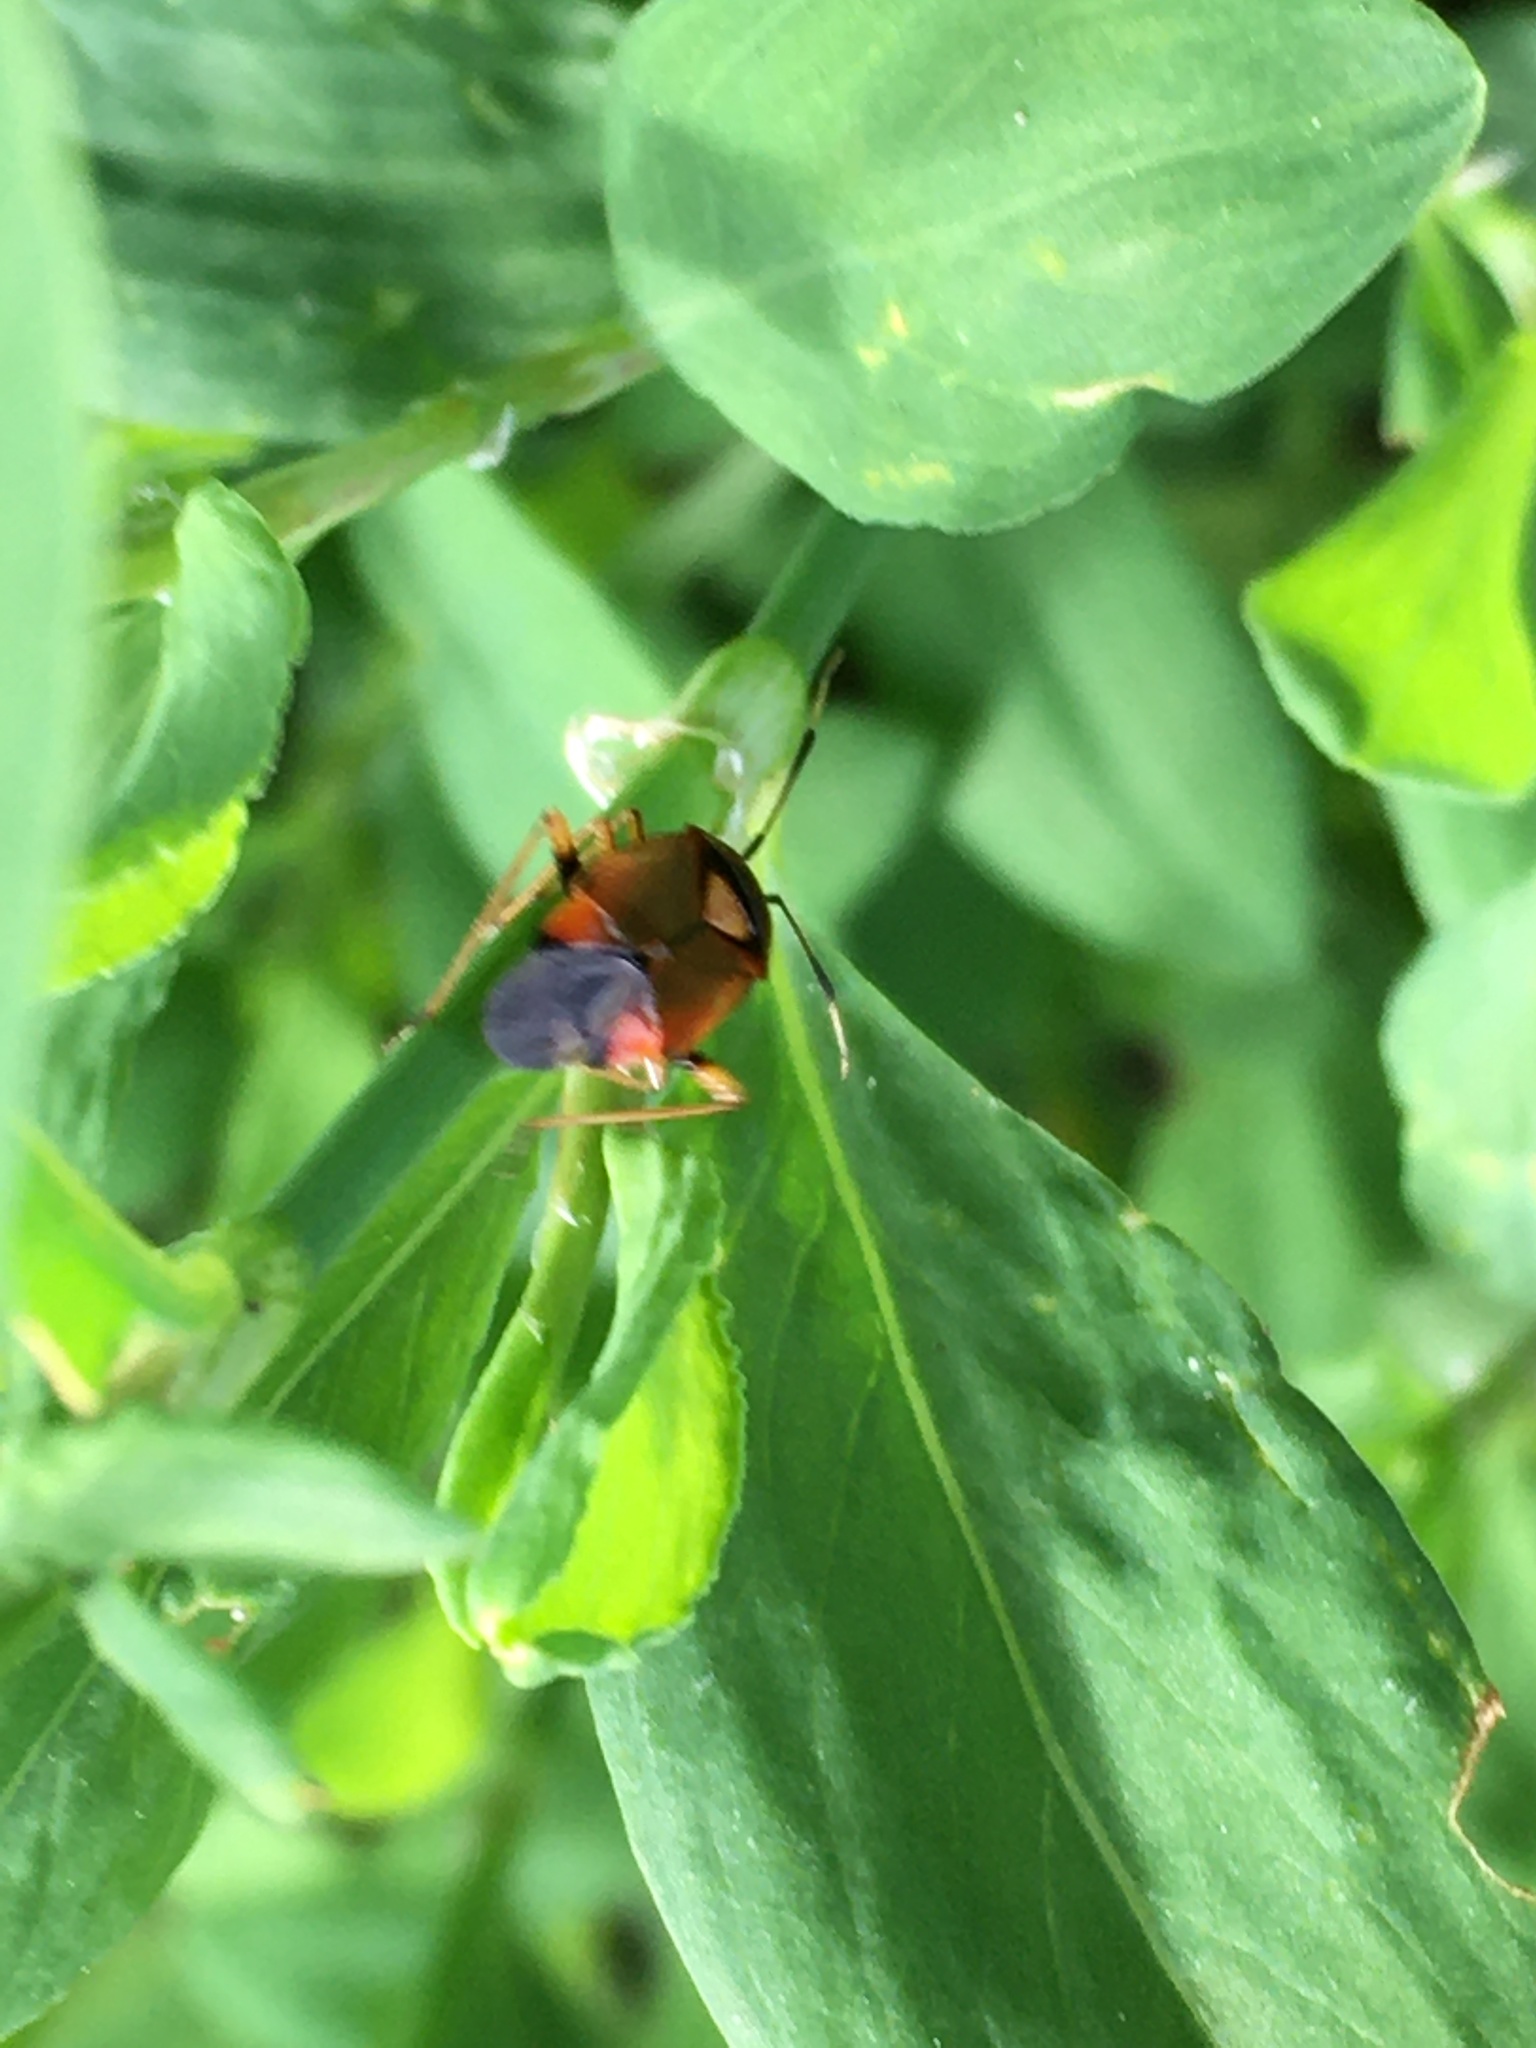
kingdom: Animalia
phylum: Arthropoda
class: Insecta
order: Hemiptera
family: Miridae
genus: Deraeocoris
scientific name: Deraeocoris ruber
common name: Plant bug
